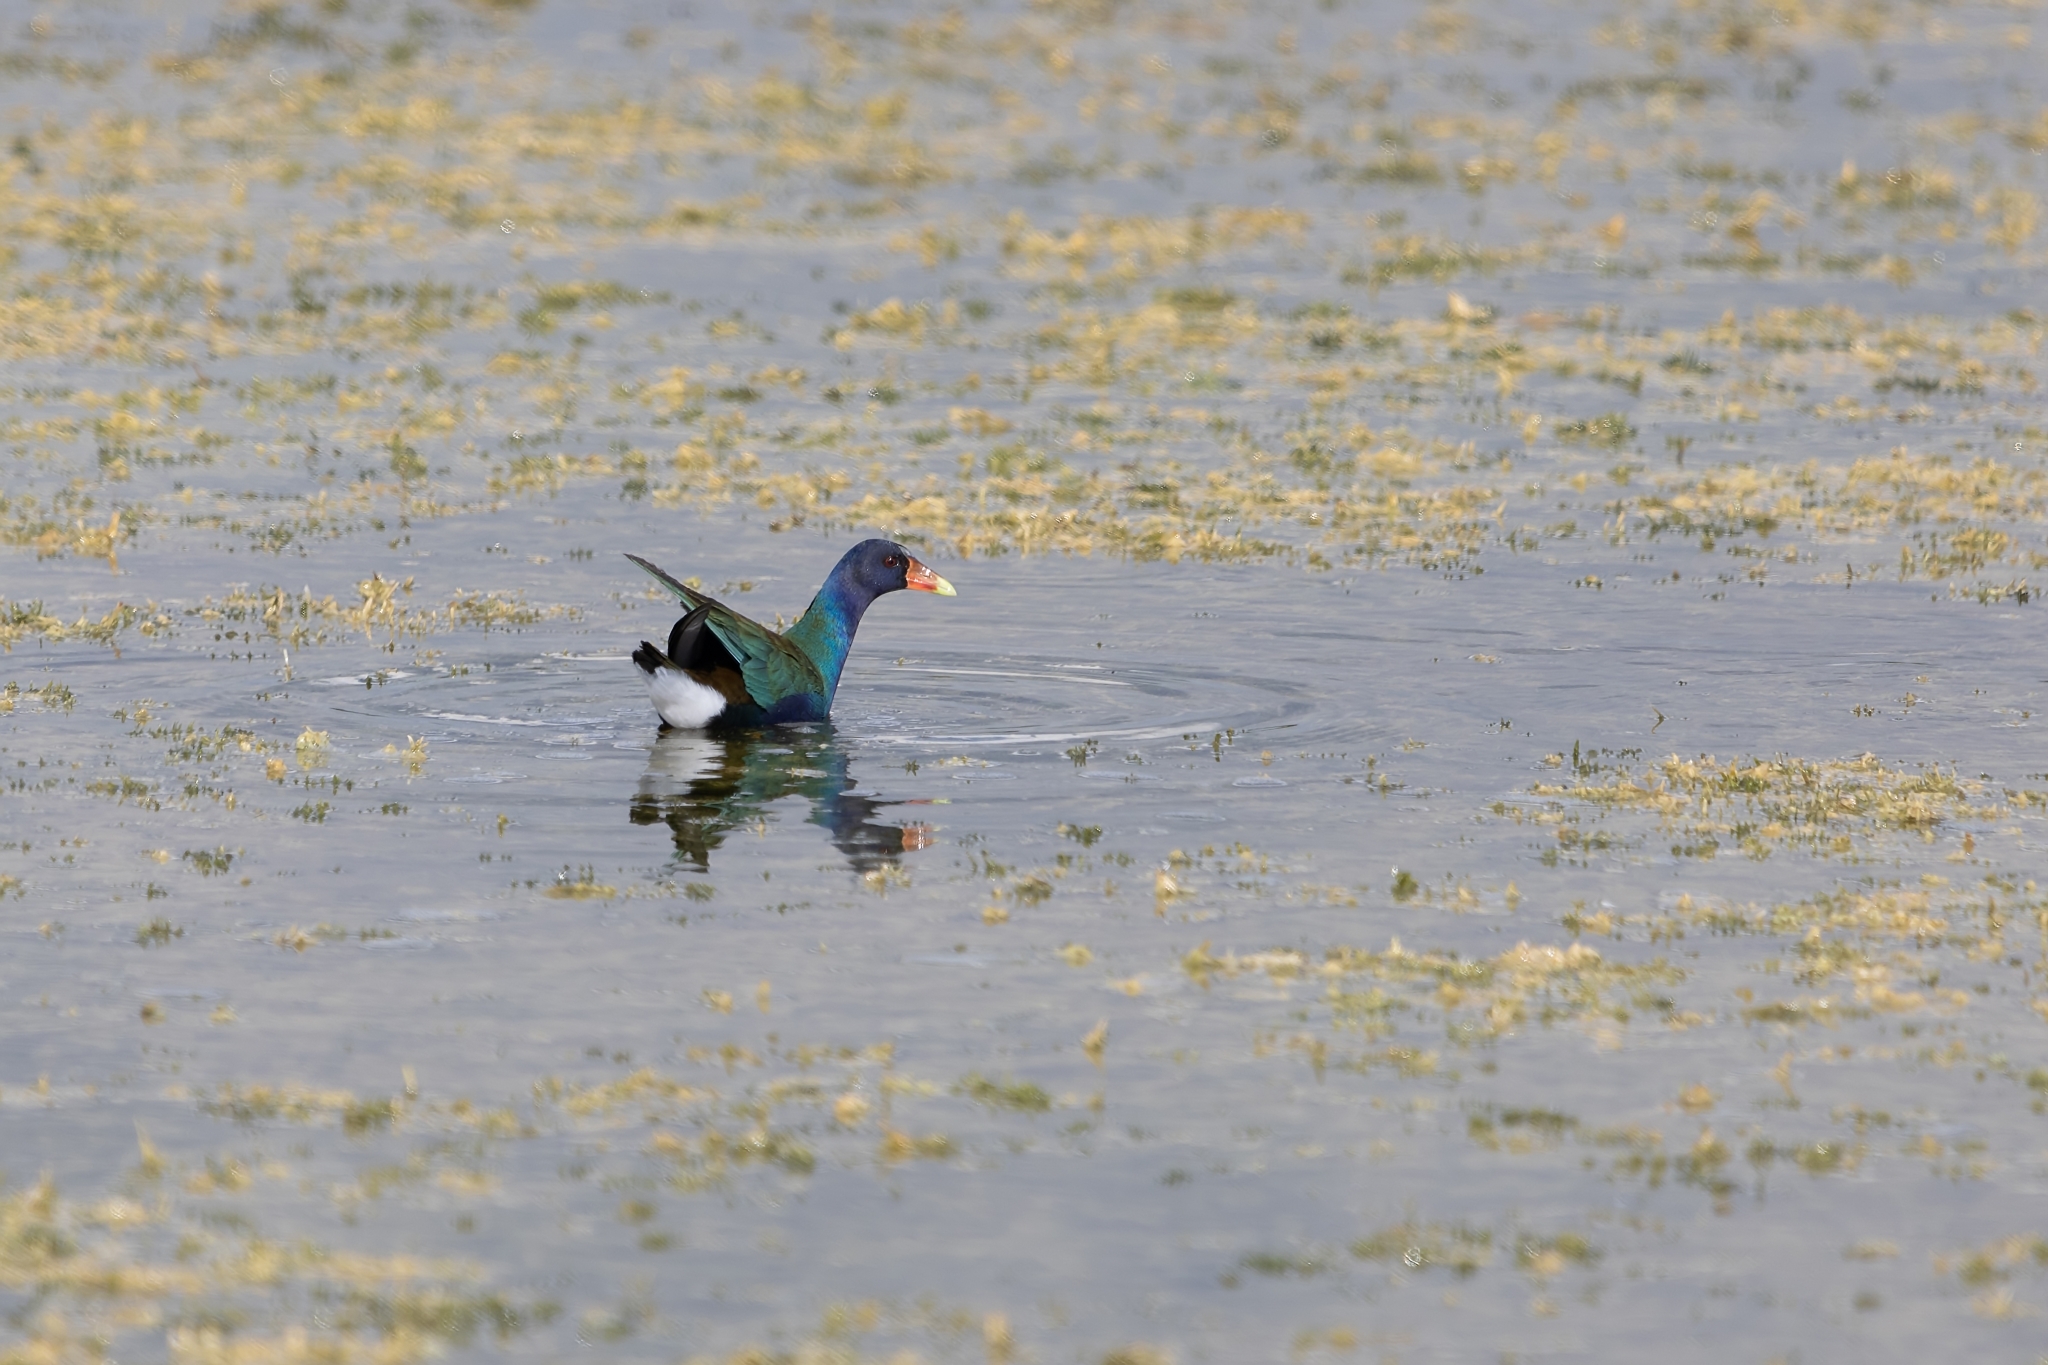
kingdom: Animalia
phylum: Chordata
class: Aves
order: Gruiformes
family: Rallidae
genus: Porphyrio
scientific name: Porphyrio martinica
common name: Purple gallinule
